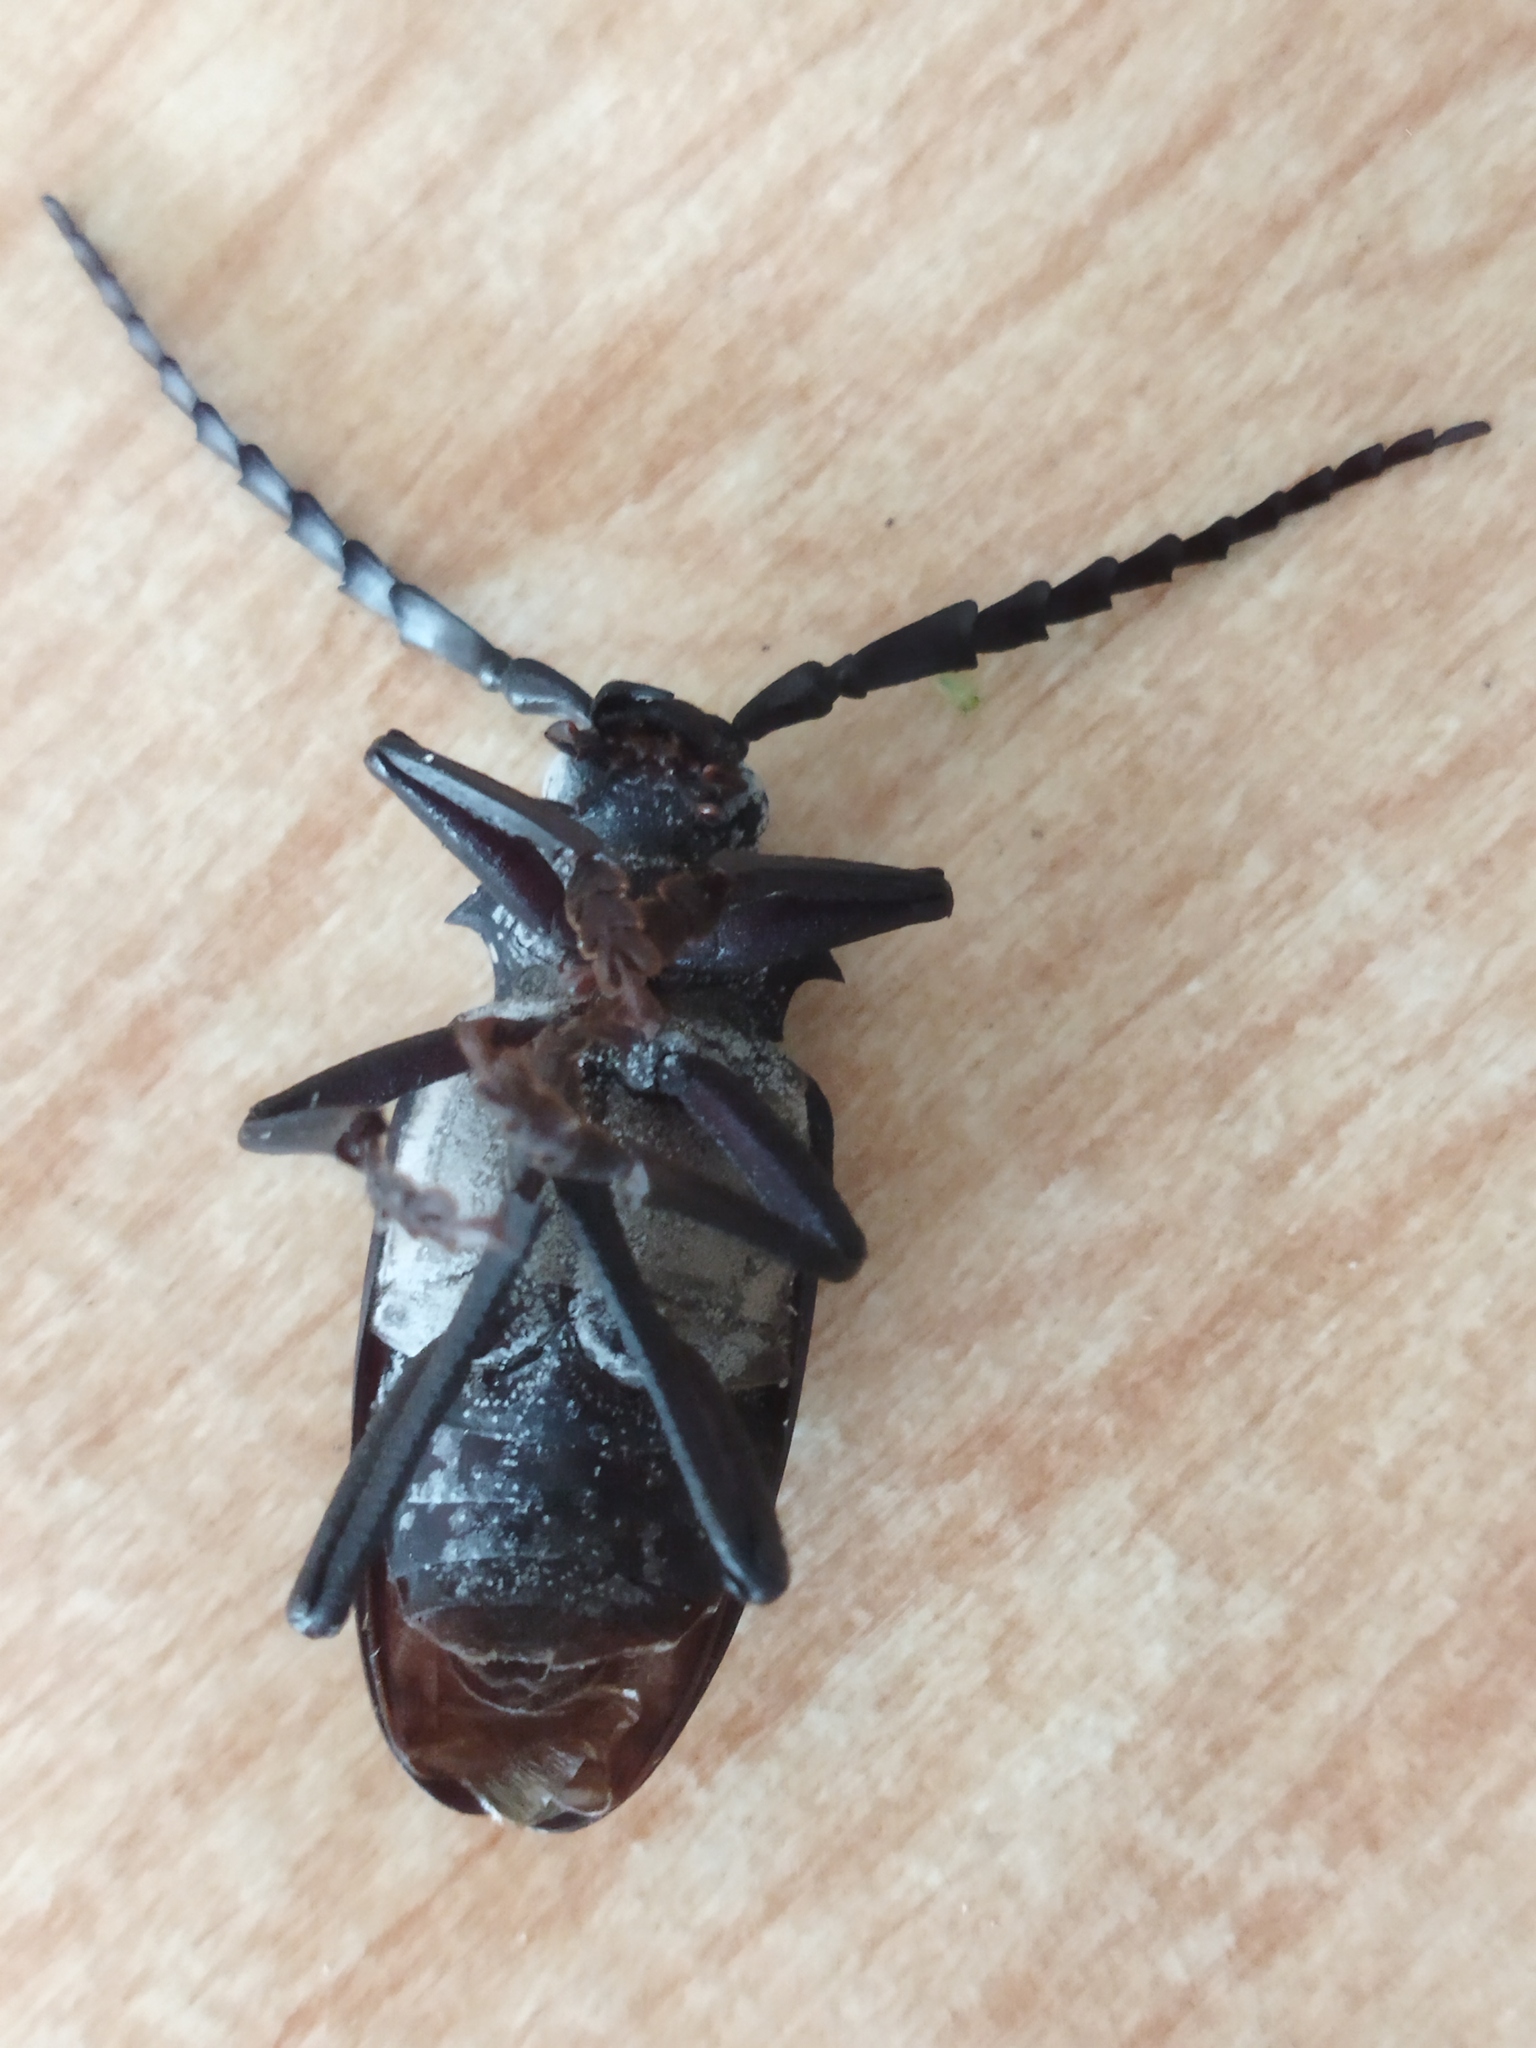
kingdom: Animalia
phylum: Arthropoda
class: Insecta
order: Coleoptera
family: Cerambycidae
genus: Mesoprionus
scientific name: Mesoprionus besikanus
